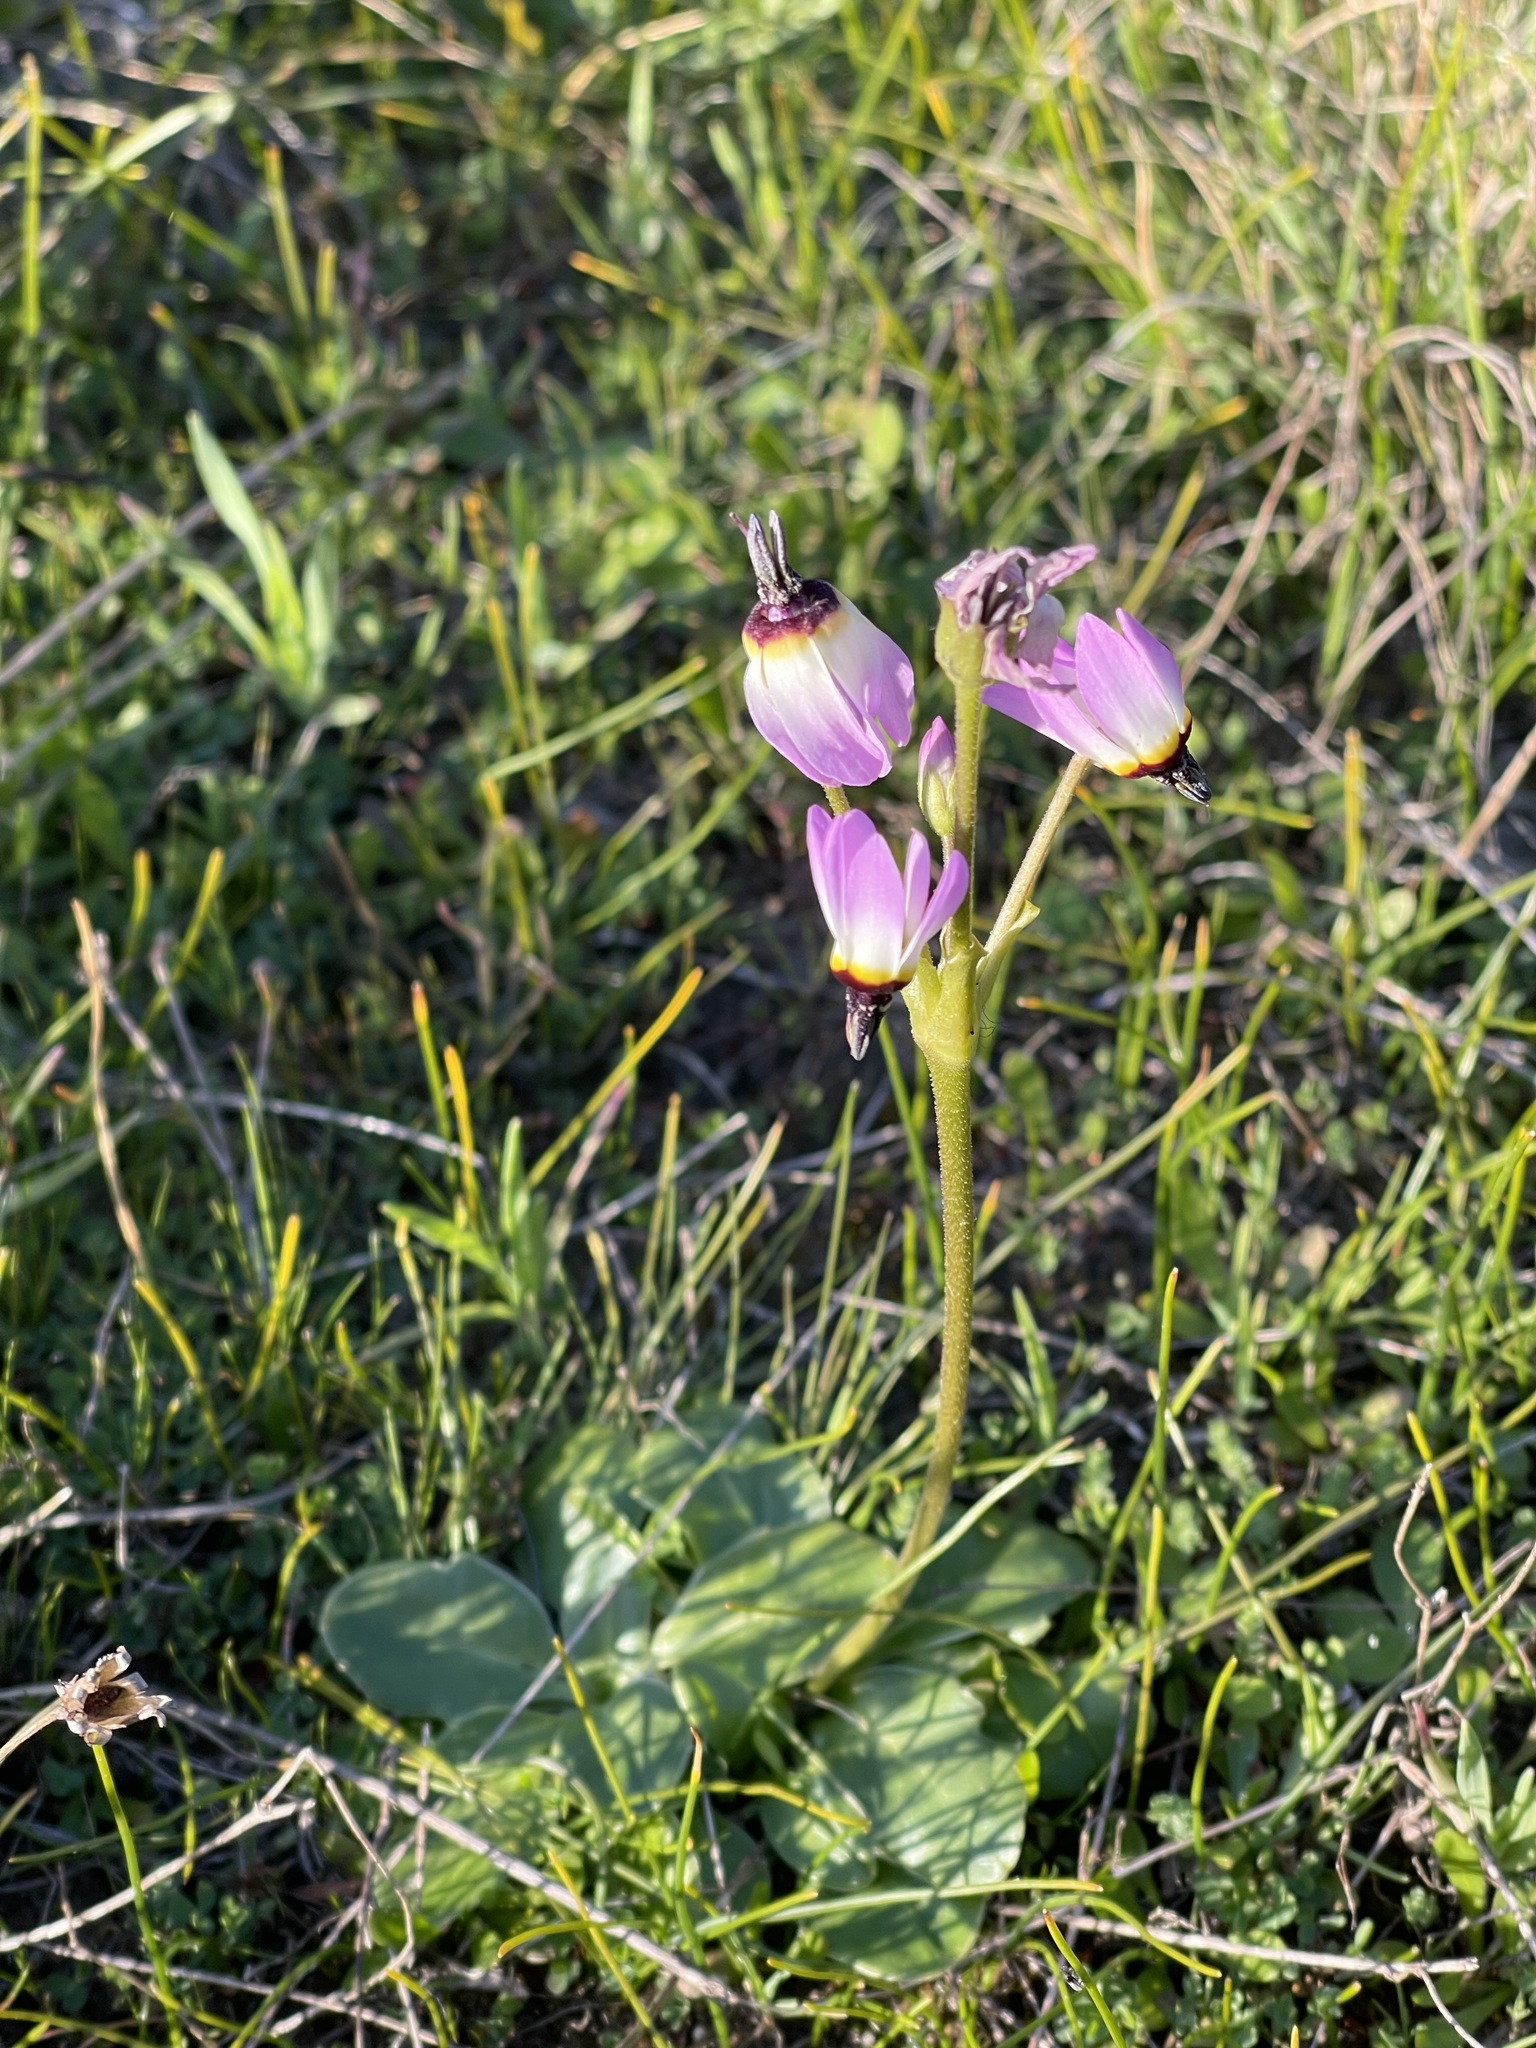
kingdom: Plantae
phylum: Tracheophyta
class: Magnoliopsida
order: Ericales
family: Primulaceae
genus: Dodecatheon
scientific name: Dodecatheon clevelandii
